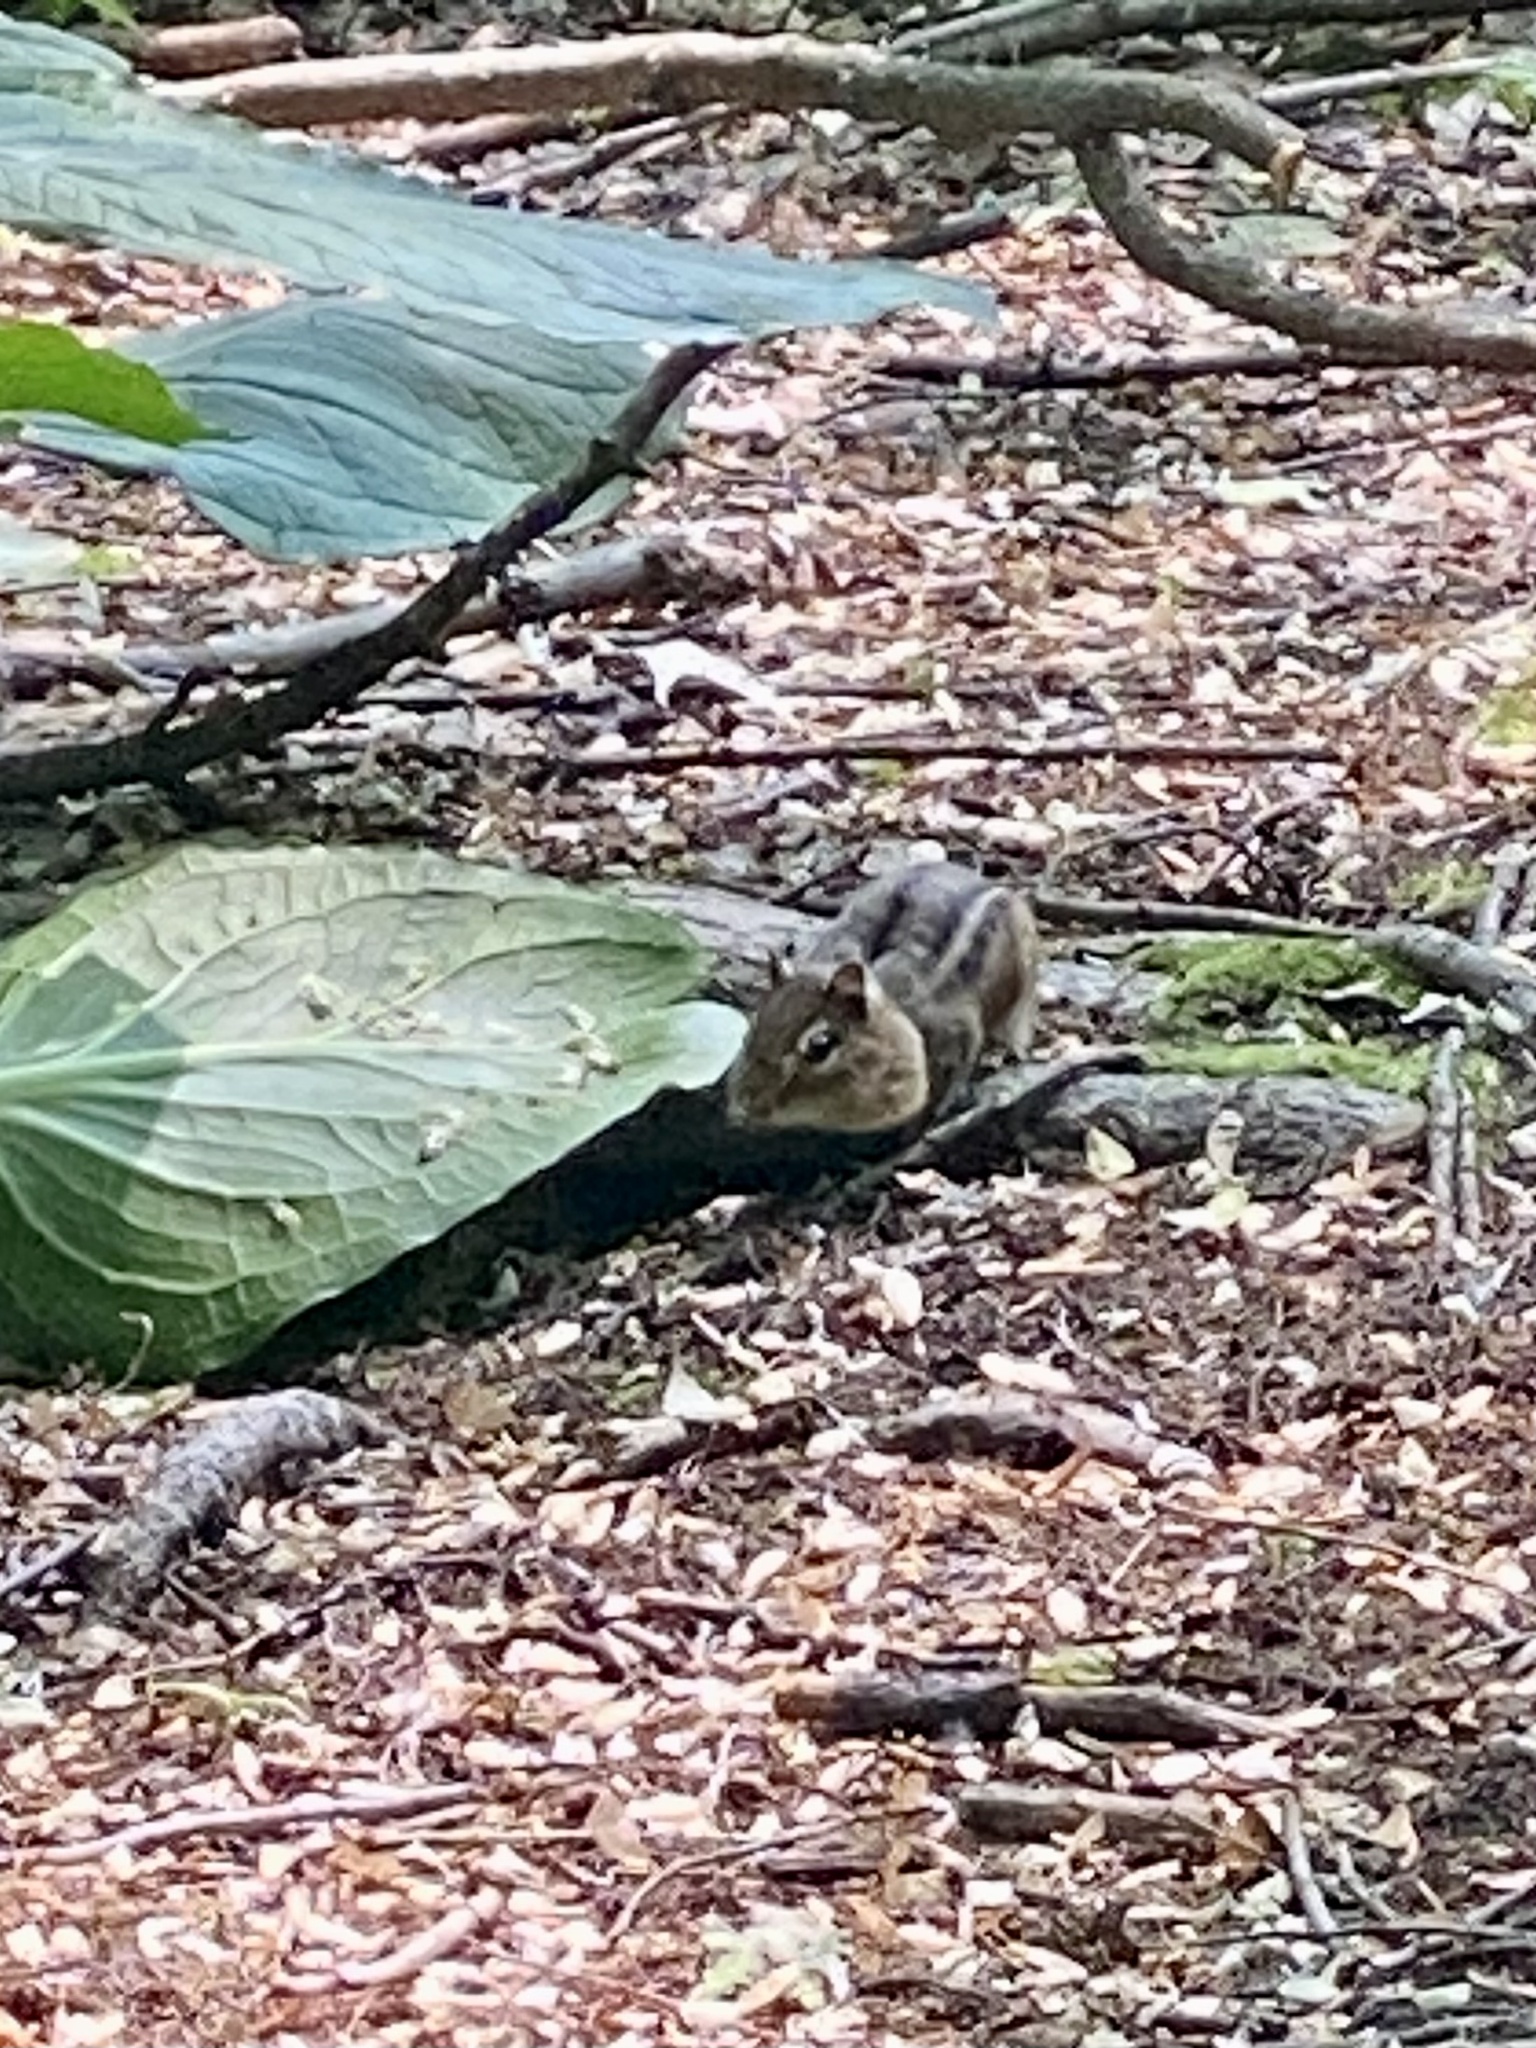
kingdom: Animalia
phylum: Chordata
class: Mammalia
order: Rodentia
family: Sciuridae
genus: Tamias
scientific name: Tamias striatus
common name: Eastern chipmunk
